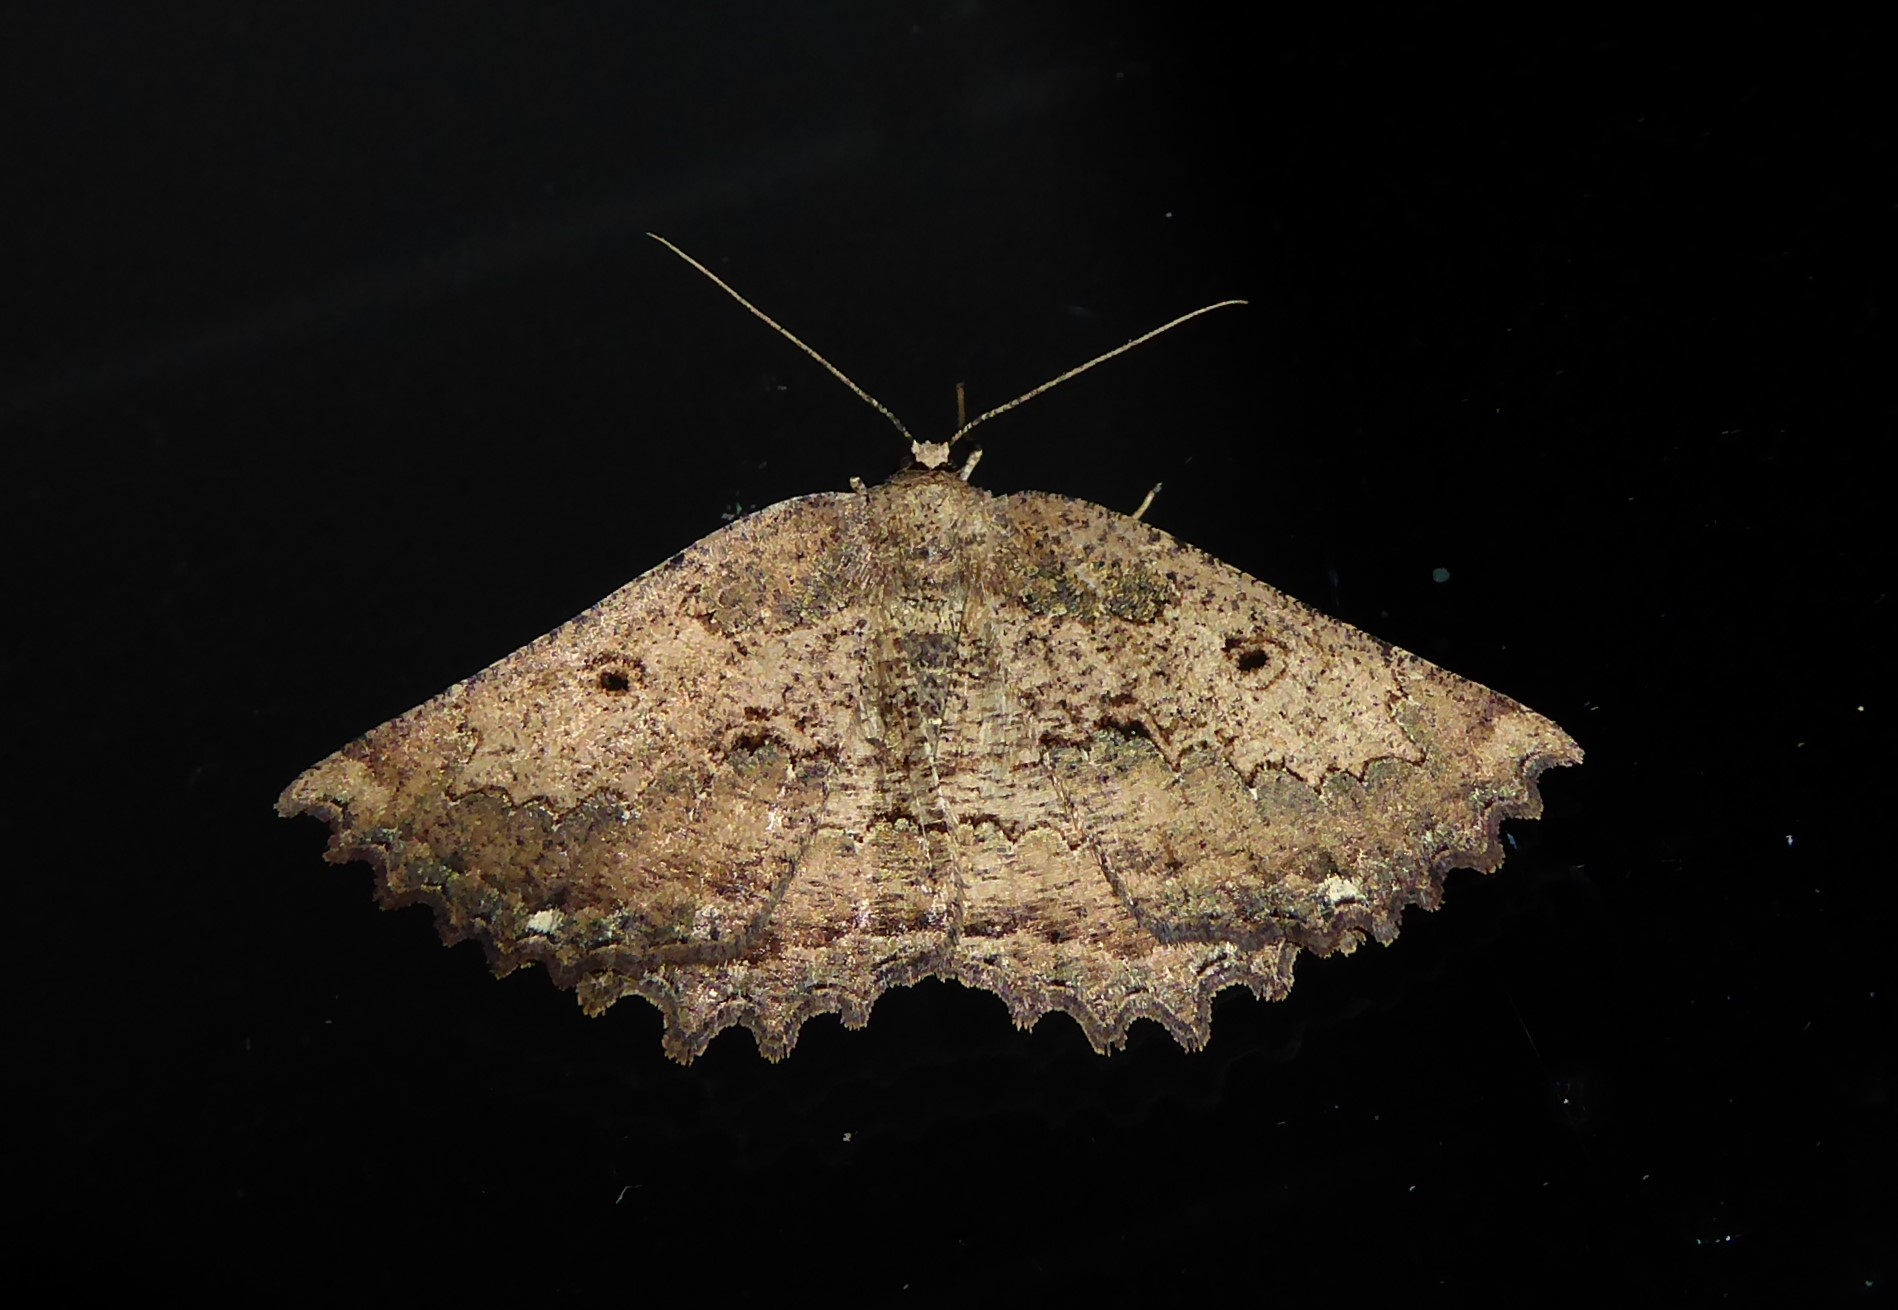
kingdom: Animalia
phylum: Arthropoda
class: Insecta
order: Lepidoptera
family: Geometridae
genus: Gellonia
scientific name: Gellonia pannularia
